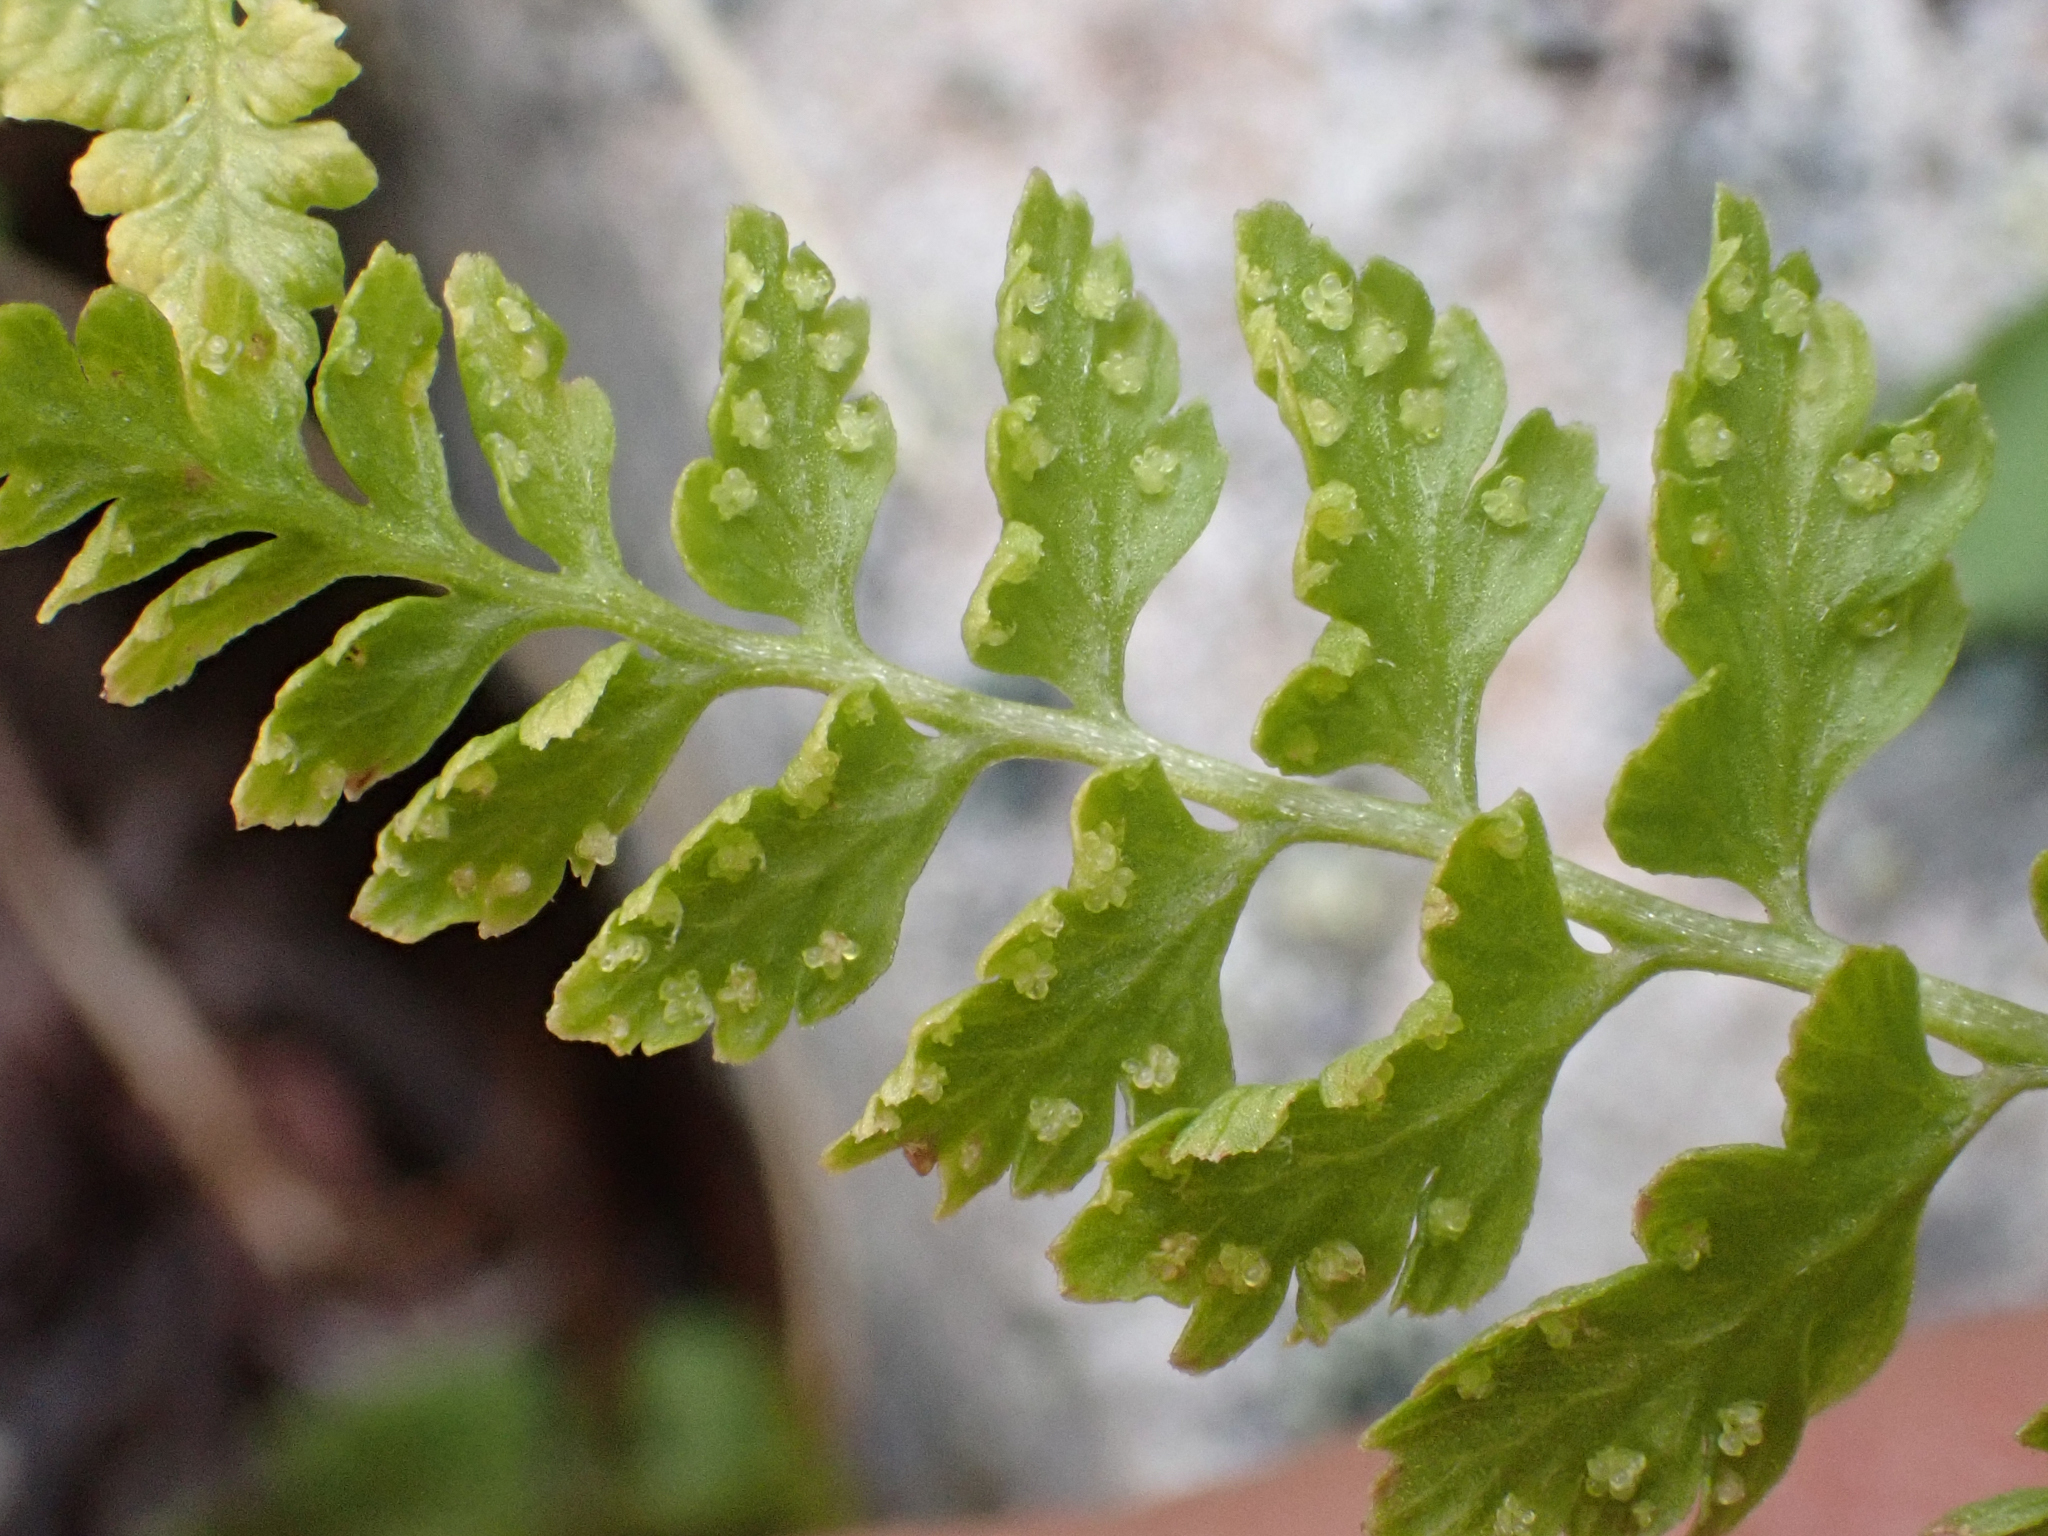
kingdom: Plantae
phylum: Tracheophyta
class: Polypodiopsida
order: Polypodiales
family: Cystopteridaceae
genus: Cystopteris
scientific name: Cystopteris fragilis
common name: Brittle bladder fern
